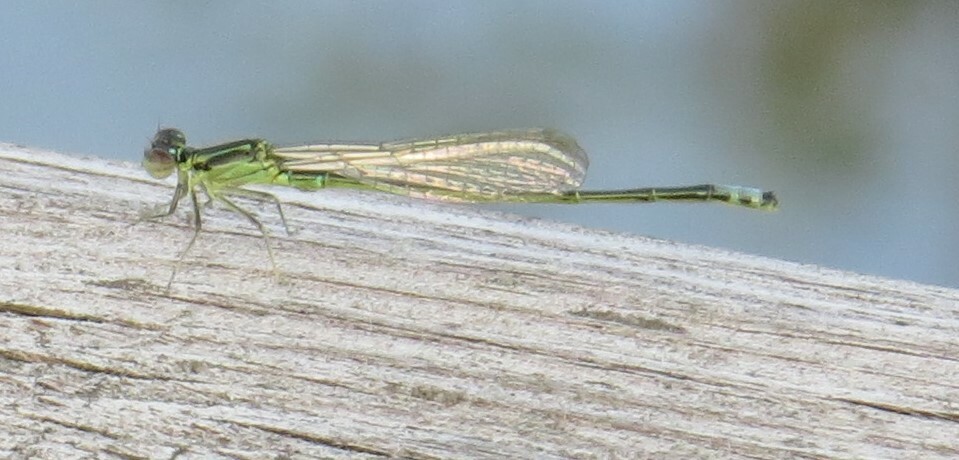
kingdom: Animalia
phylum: Arthropoda
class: Insecta
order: Odonata
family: Coenagrionidae
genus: Ischnura
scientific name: Ischnura verticalis
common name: Eastern forktail
